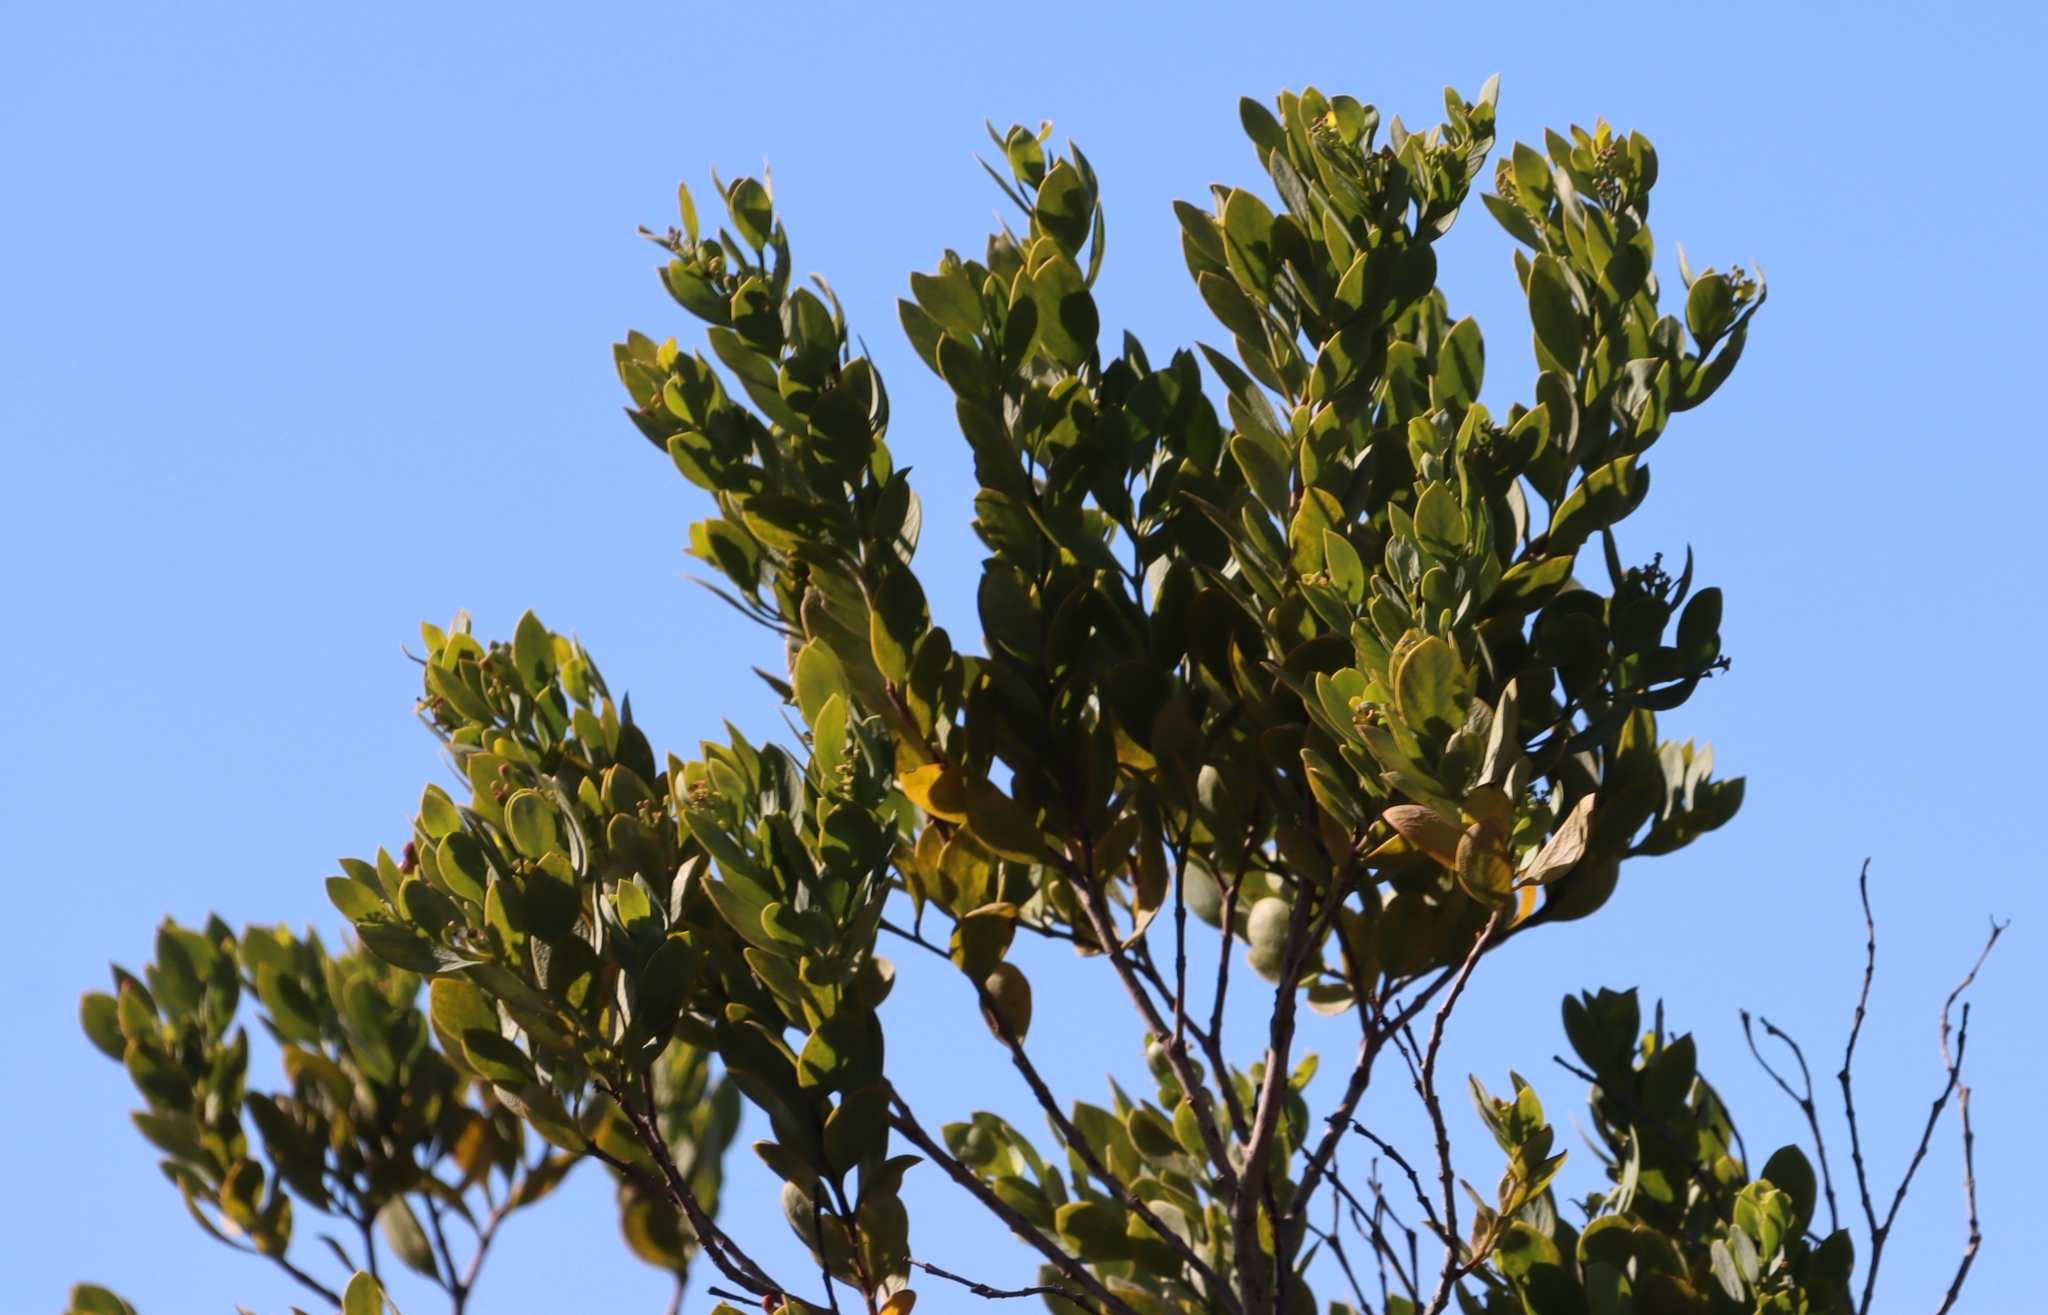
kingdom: Plantae
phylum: Tracheophyta
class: Magnoliopsida
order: Santalales
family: Santalaceae
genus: Osyris
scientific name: Osyris compressa
